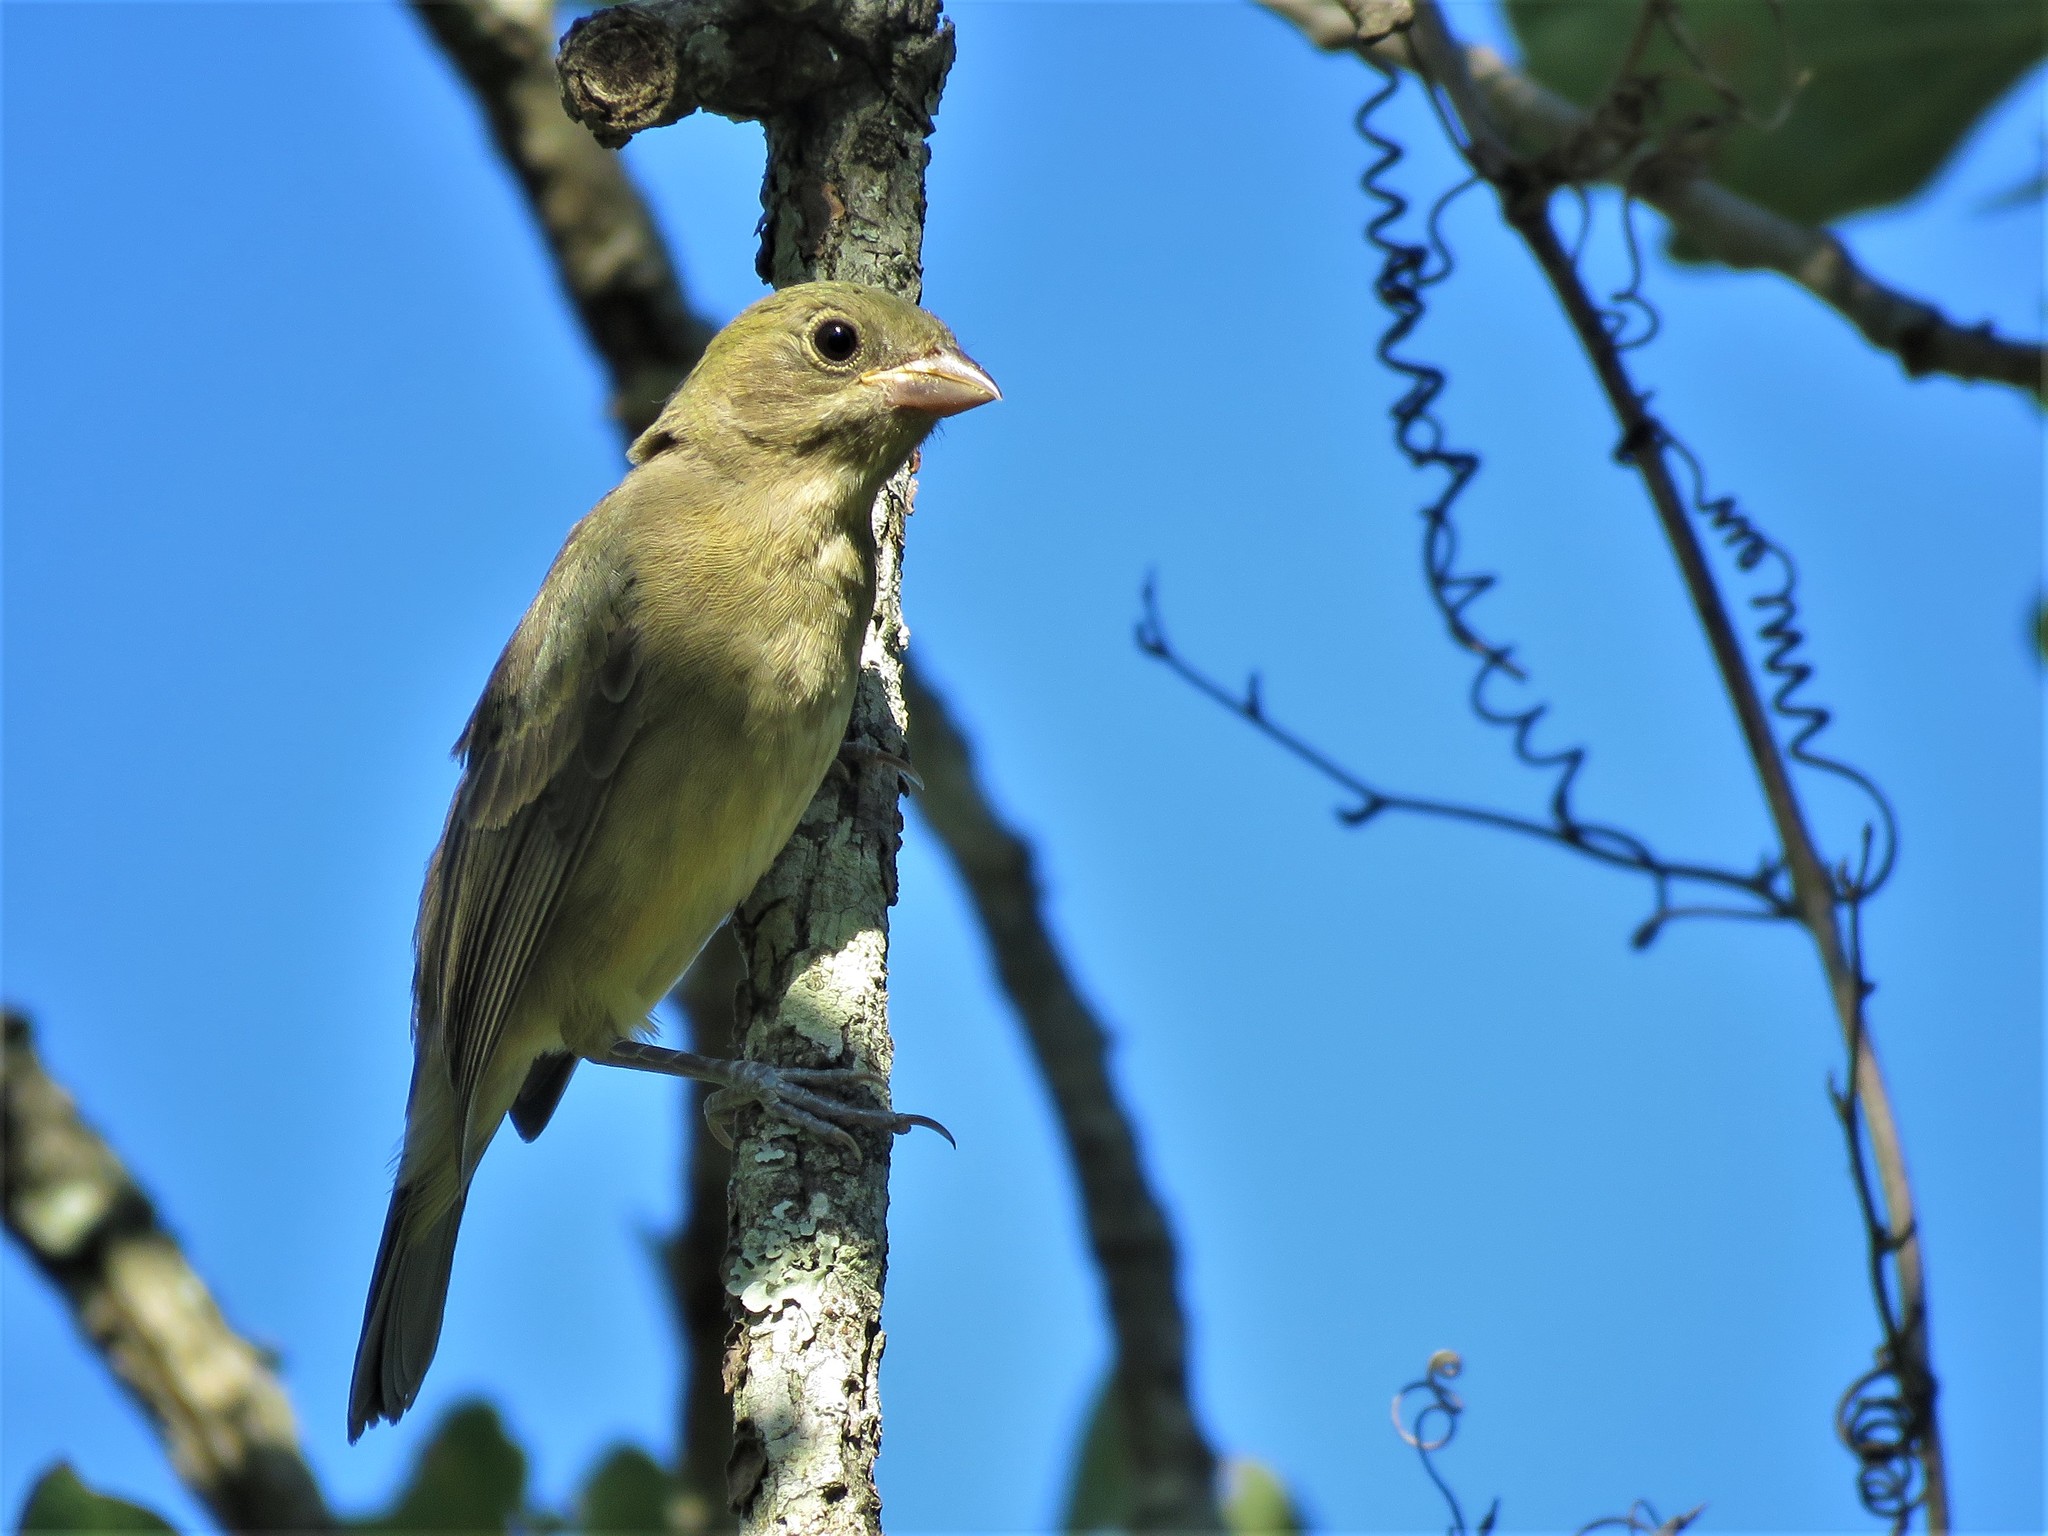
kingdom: Animalia
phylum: Chordata
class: Aves
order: Passeriformes
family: Cardinalidae
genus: Passerina
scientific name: Passerina ciris
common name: Painted bunting
